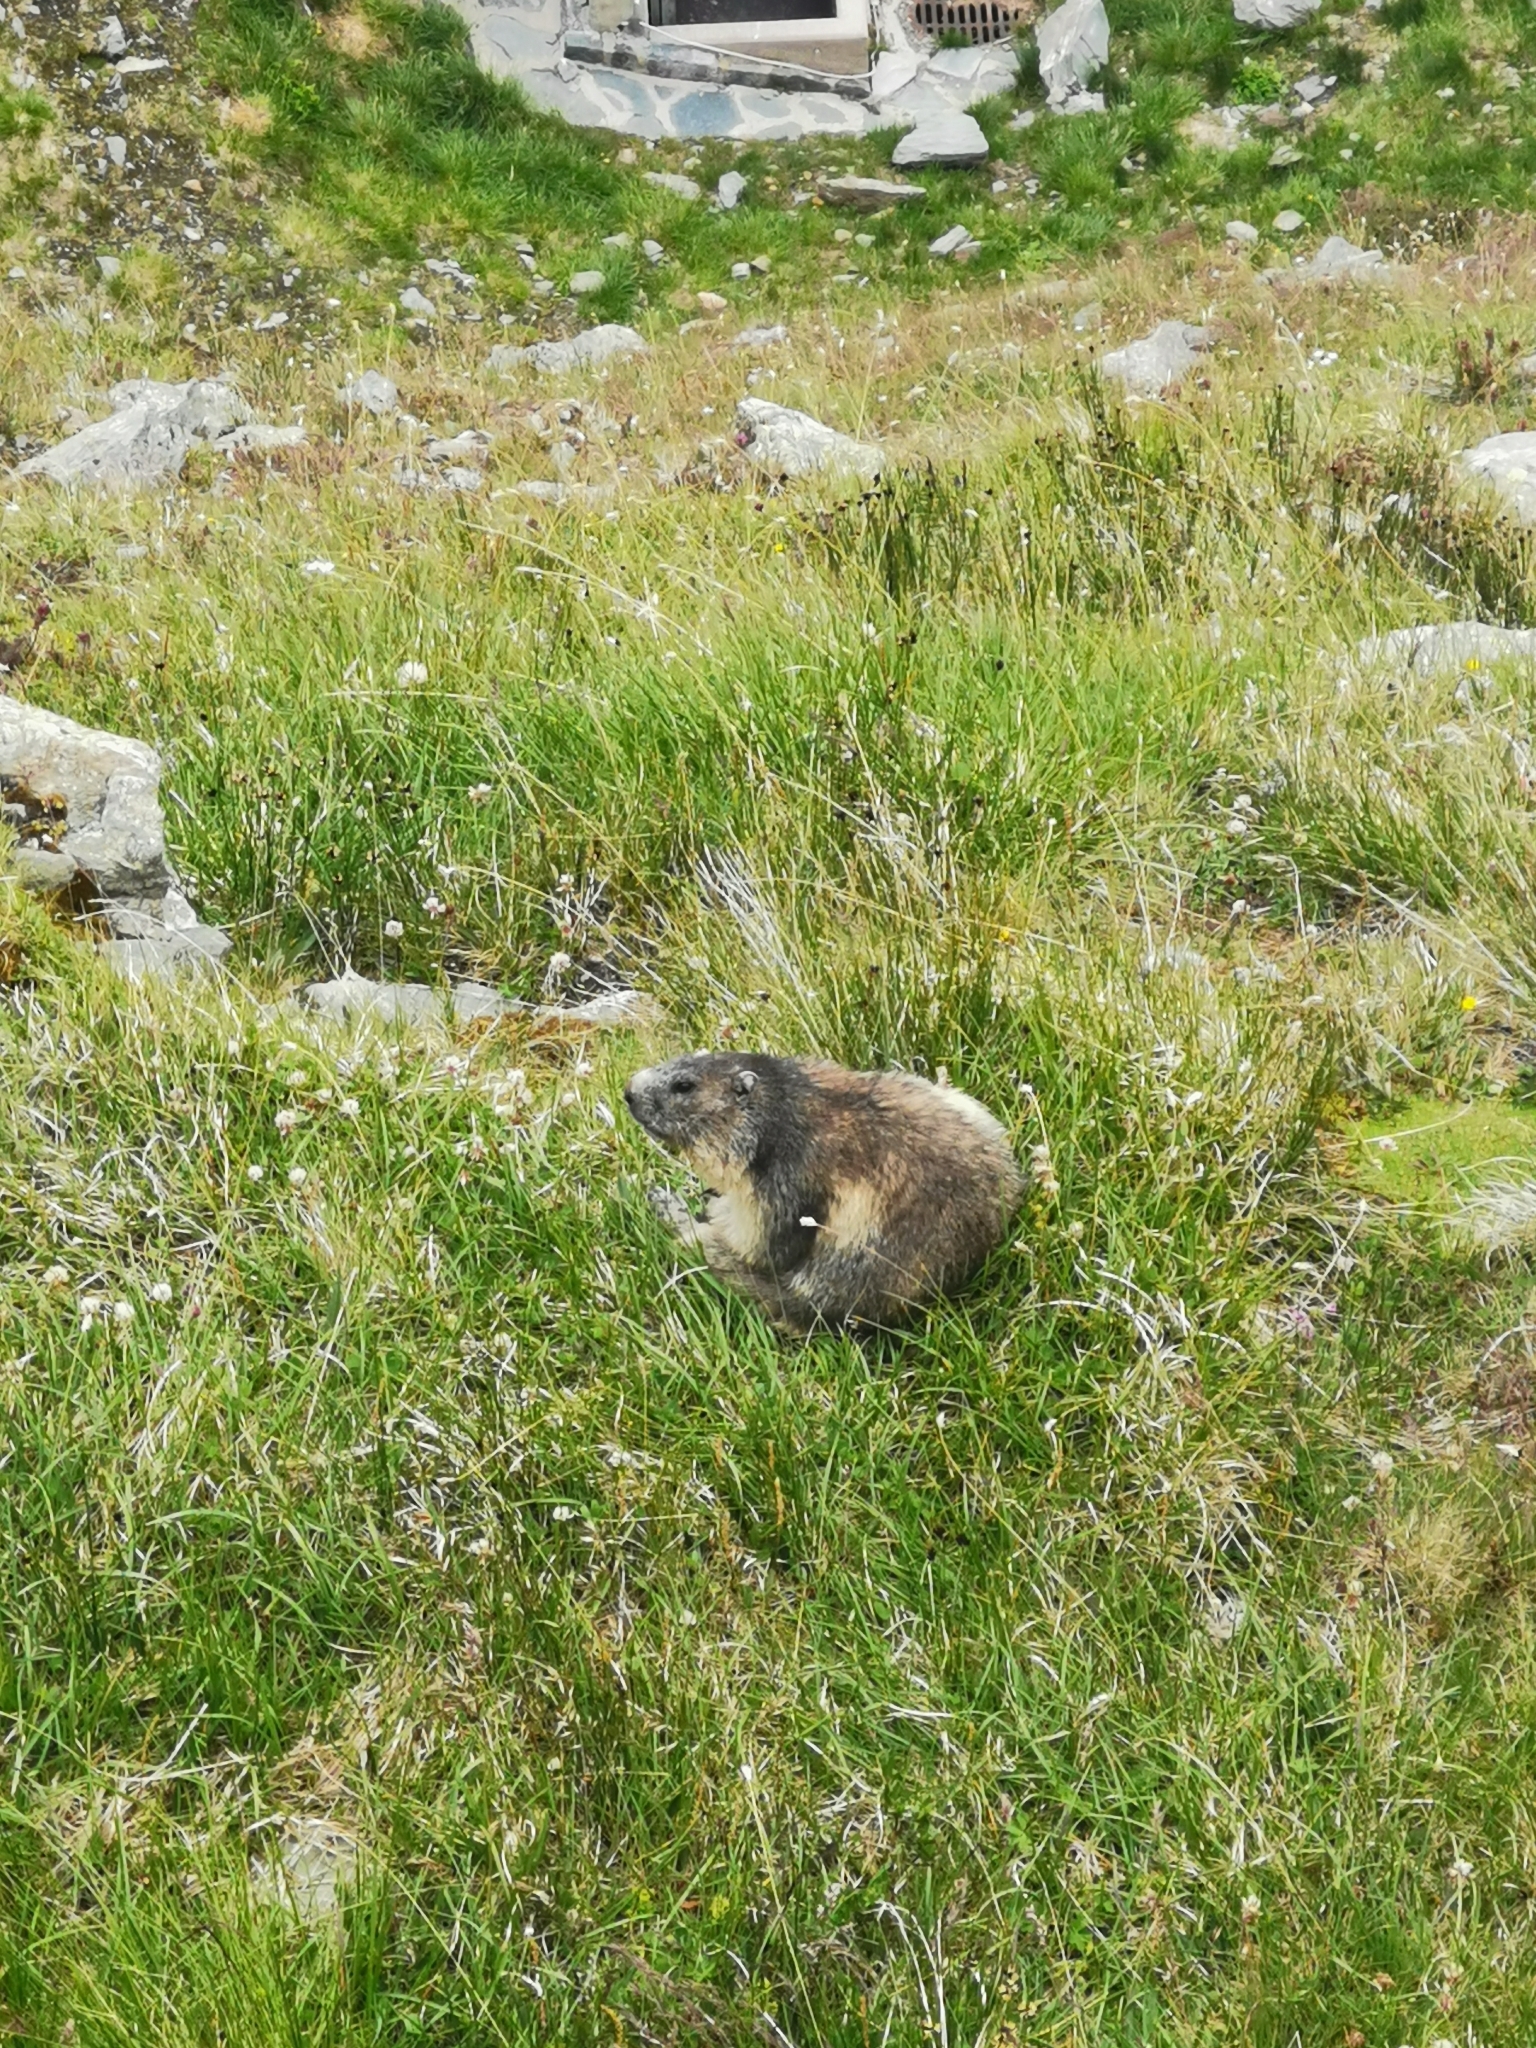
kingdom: Animalia
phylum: Chordata
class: Mammalia
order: Rodentia
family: Sciuridae
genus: Marmota
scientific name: Marmota marmota
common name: Alpine marmot
